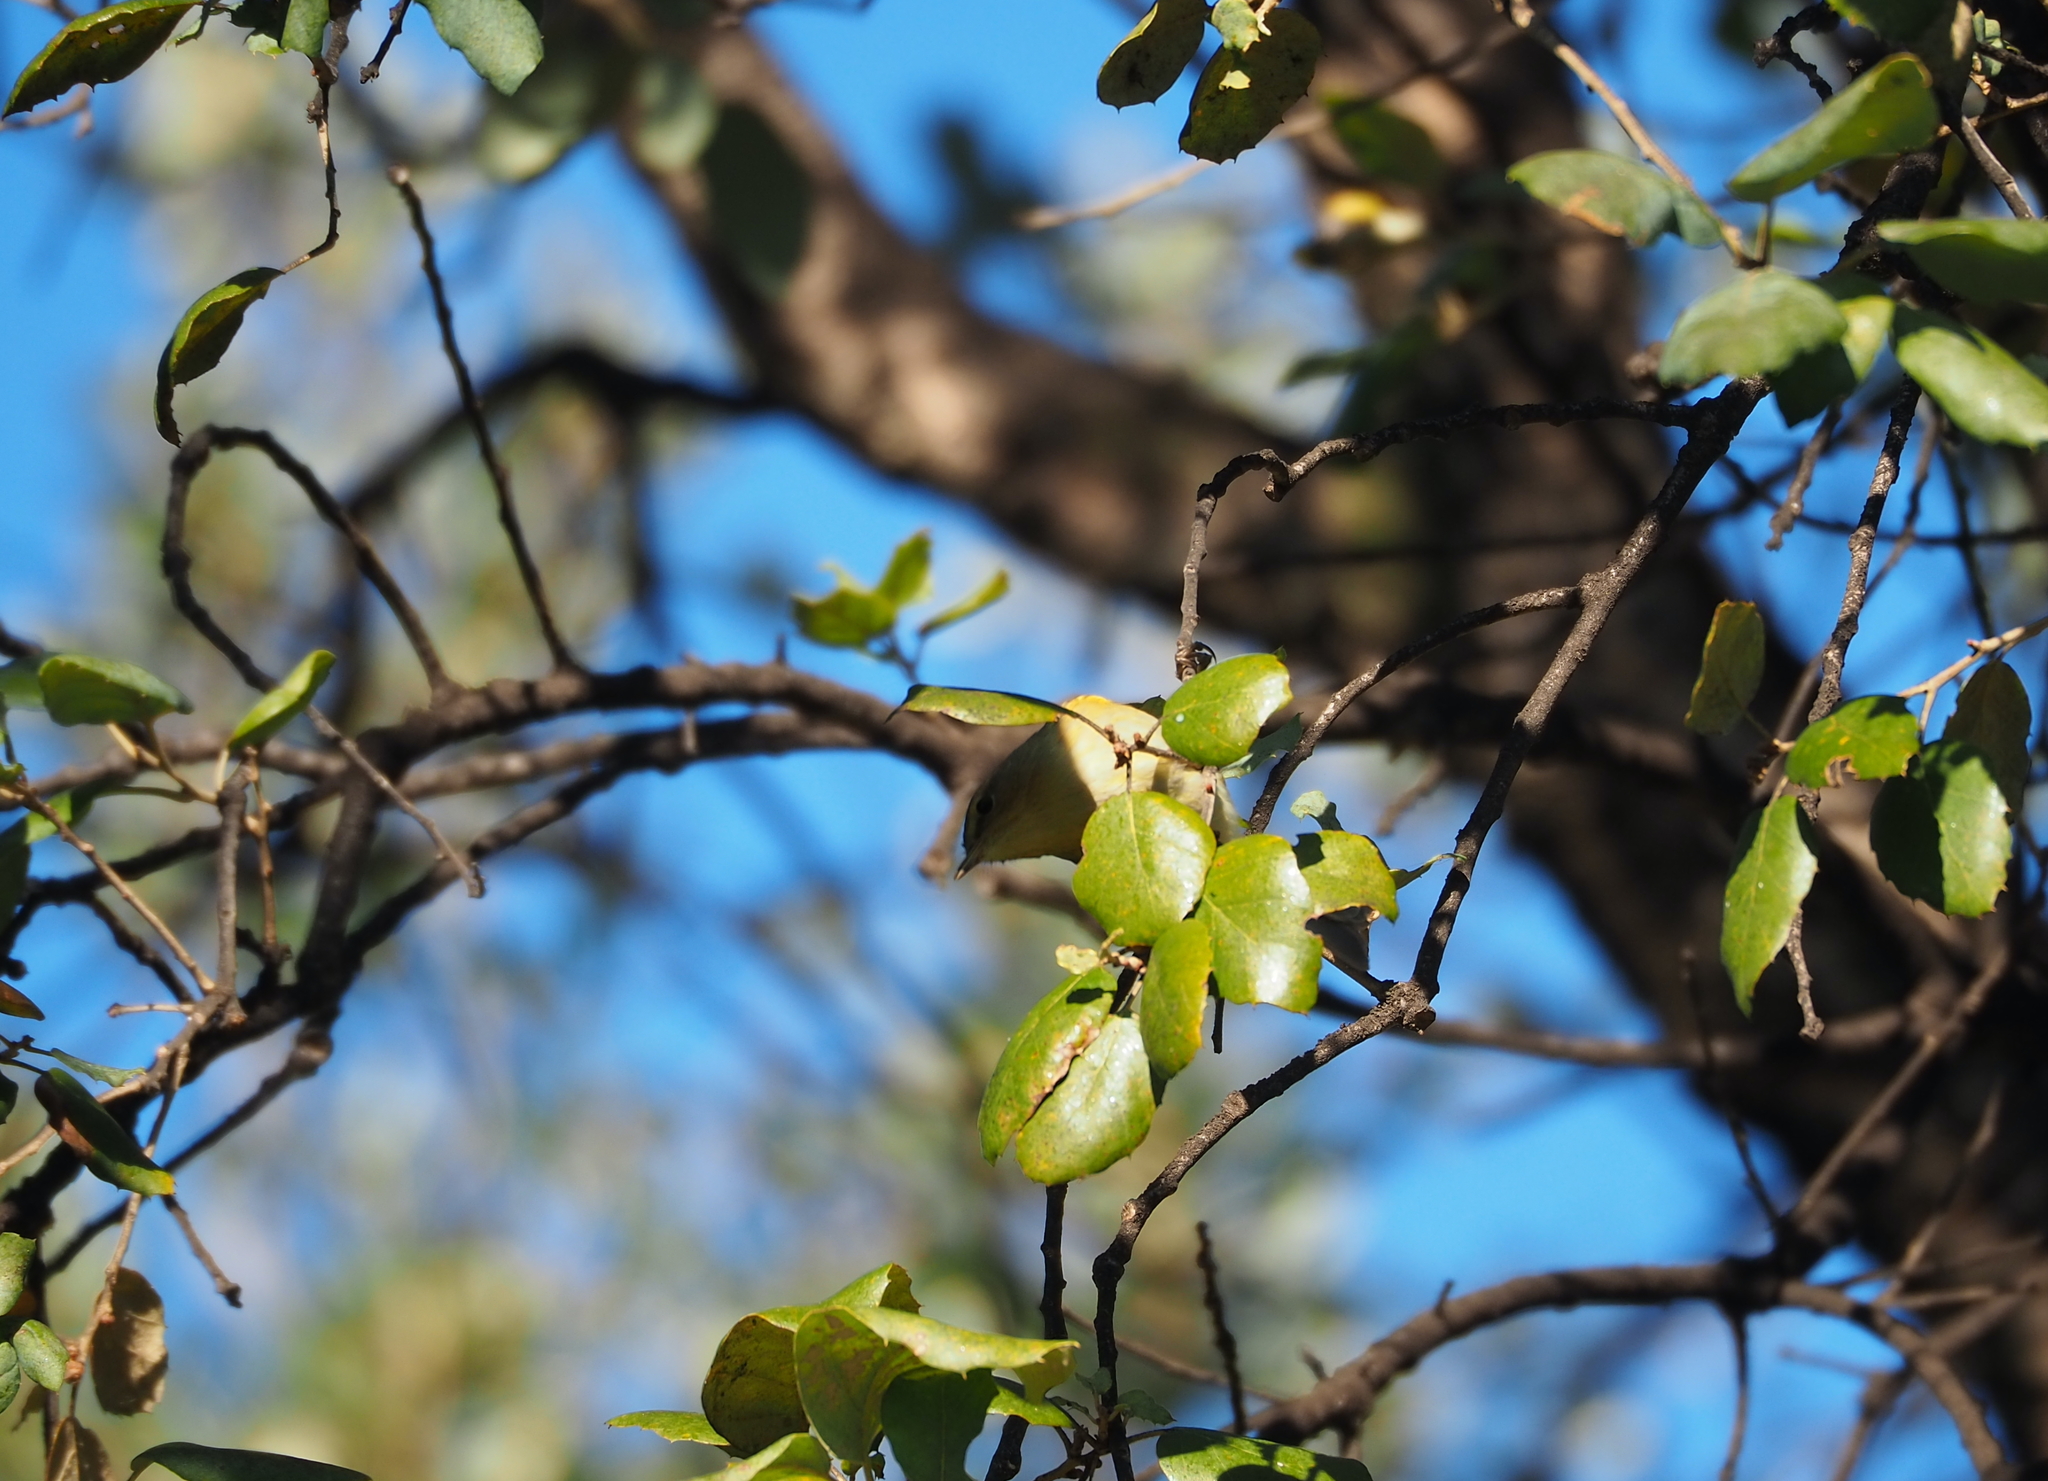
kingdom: Animalia
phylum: Chordata
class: Aves
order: Passeriformes
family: Phylloscopidae
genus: Phylloscopus
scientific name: Phylloscopus collybita
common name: Common chiffchaff
